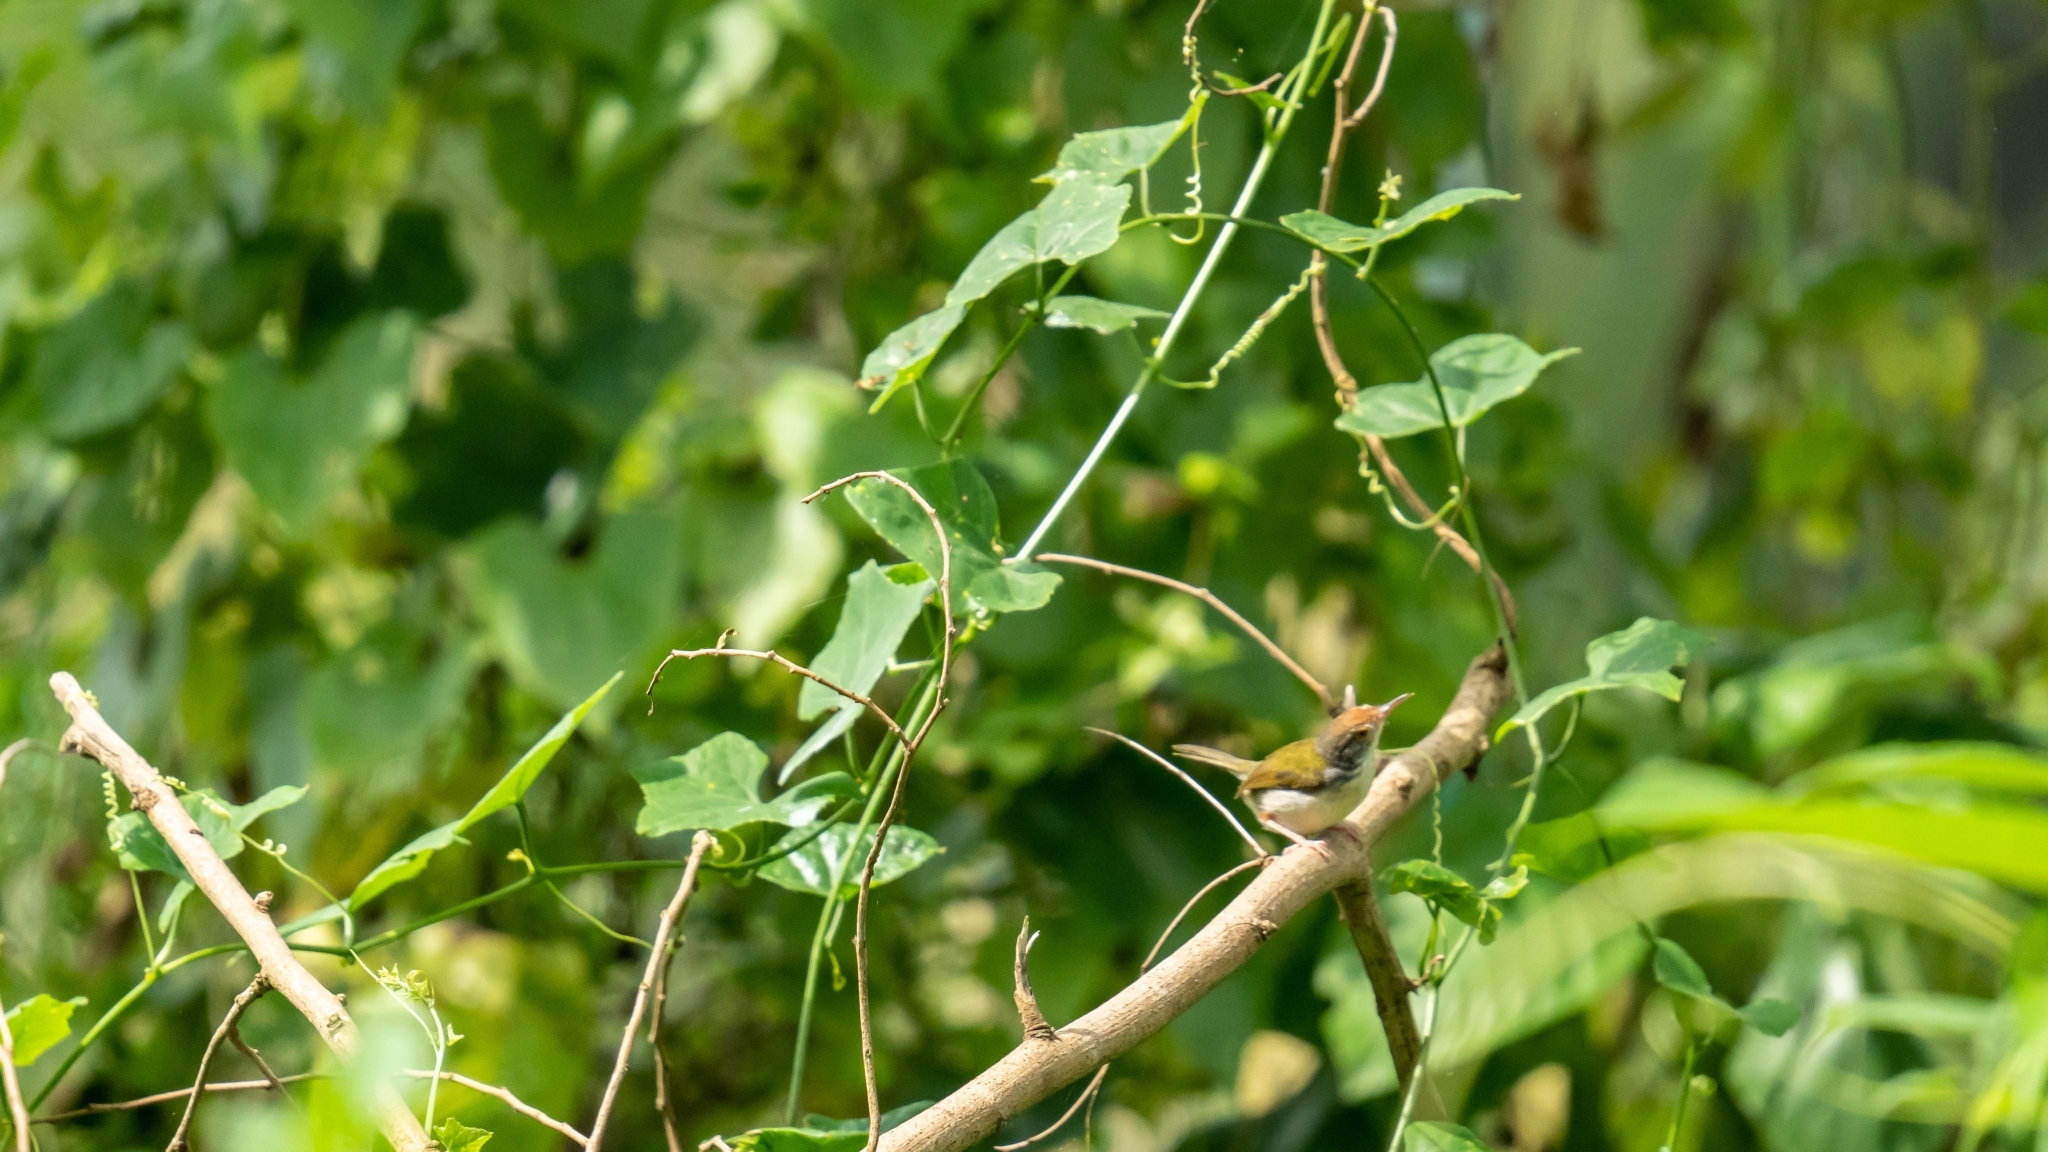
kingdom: Animalia
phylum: Chordata
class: Aves
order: Passeriformes
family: Cisticolidae
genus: Orthotomus
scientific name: Orthotomus sutorius
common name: Common tailorbird
